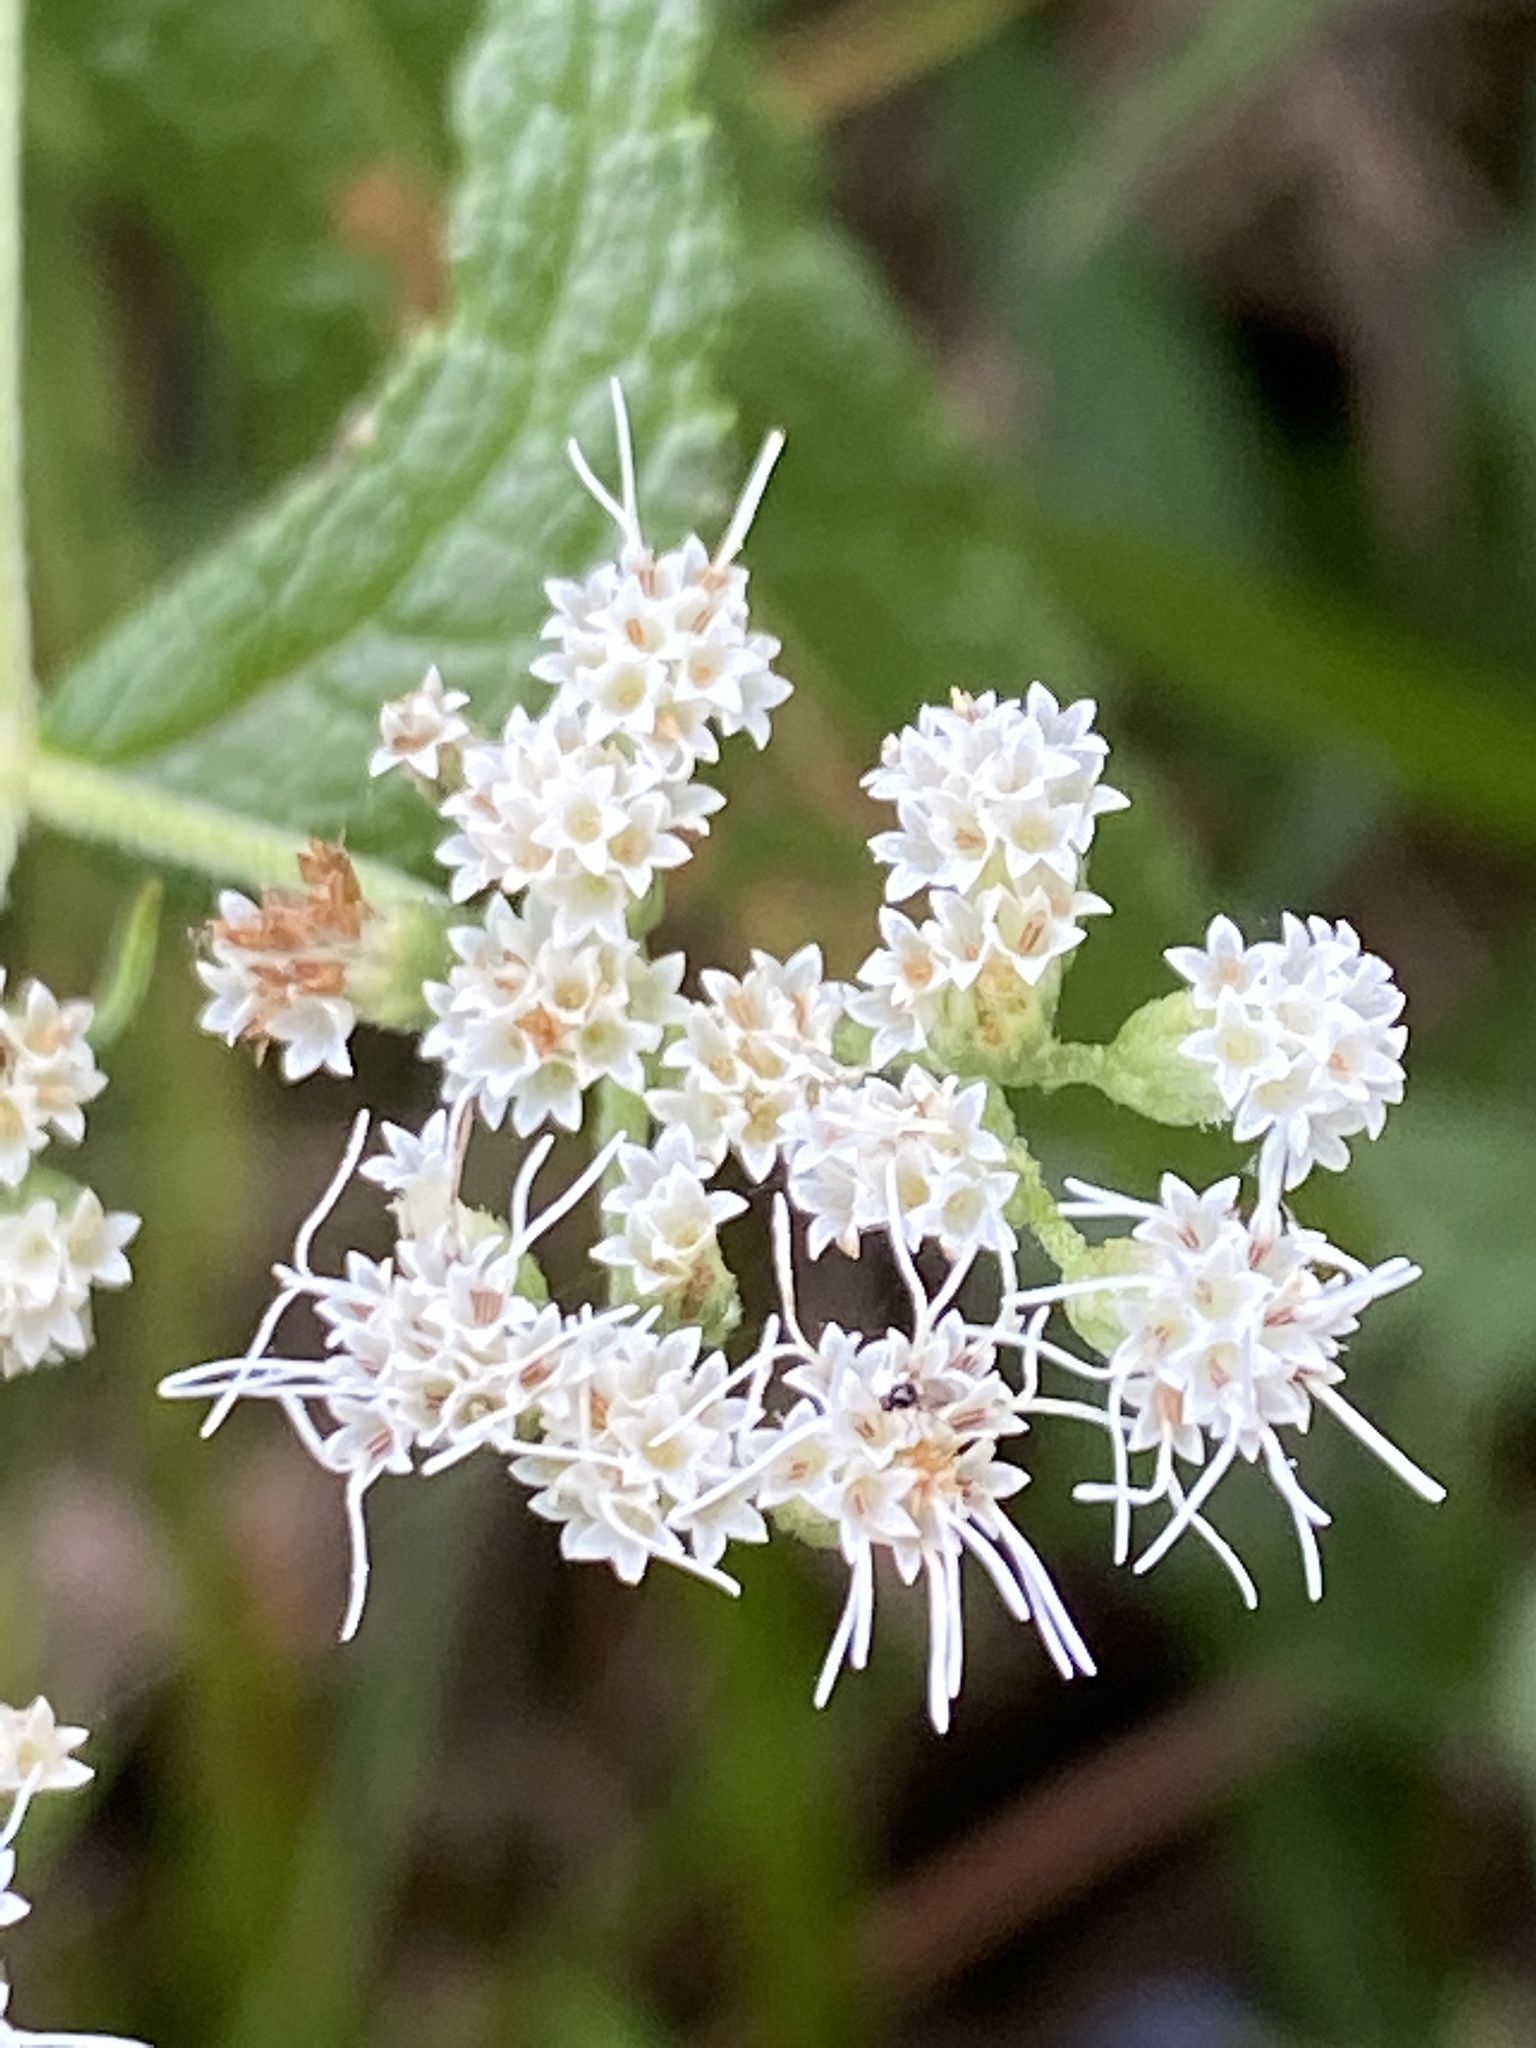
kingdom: Plantae
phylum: Tracheophyta
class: Magnoliopsida
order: Asterales
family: Asteraceae
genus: Eupatorium
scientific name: Eupatorium perfoliatum
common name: Boneset
